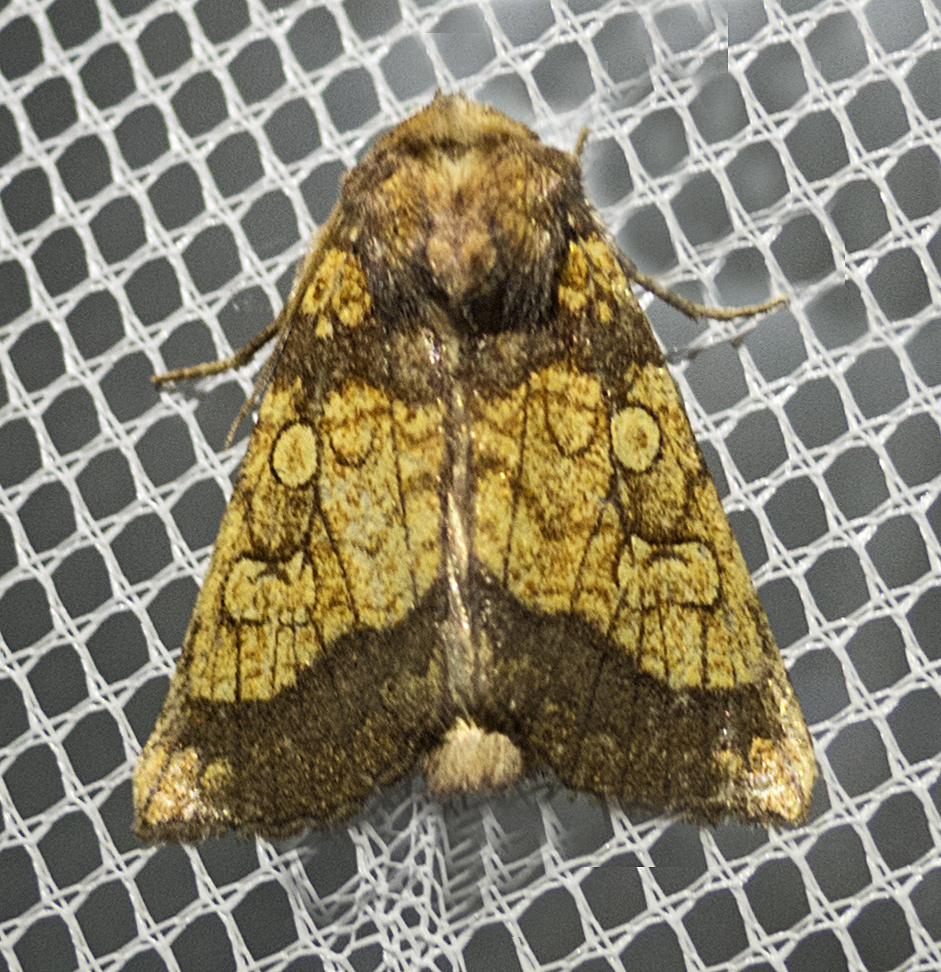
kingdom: Animalia
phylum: Arthropoda
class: Insecta
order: Lepidoptera
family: Noctuidae
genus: Gortyna
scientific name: Gortyna flavago
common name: Frosted orange
